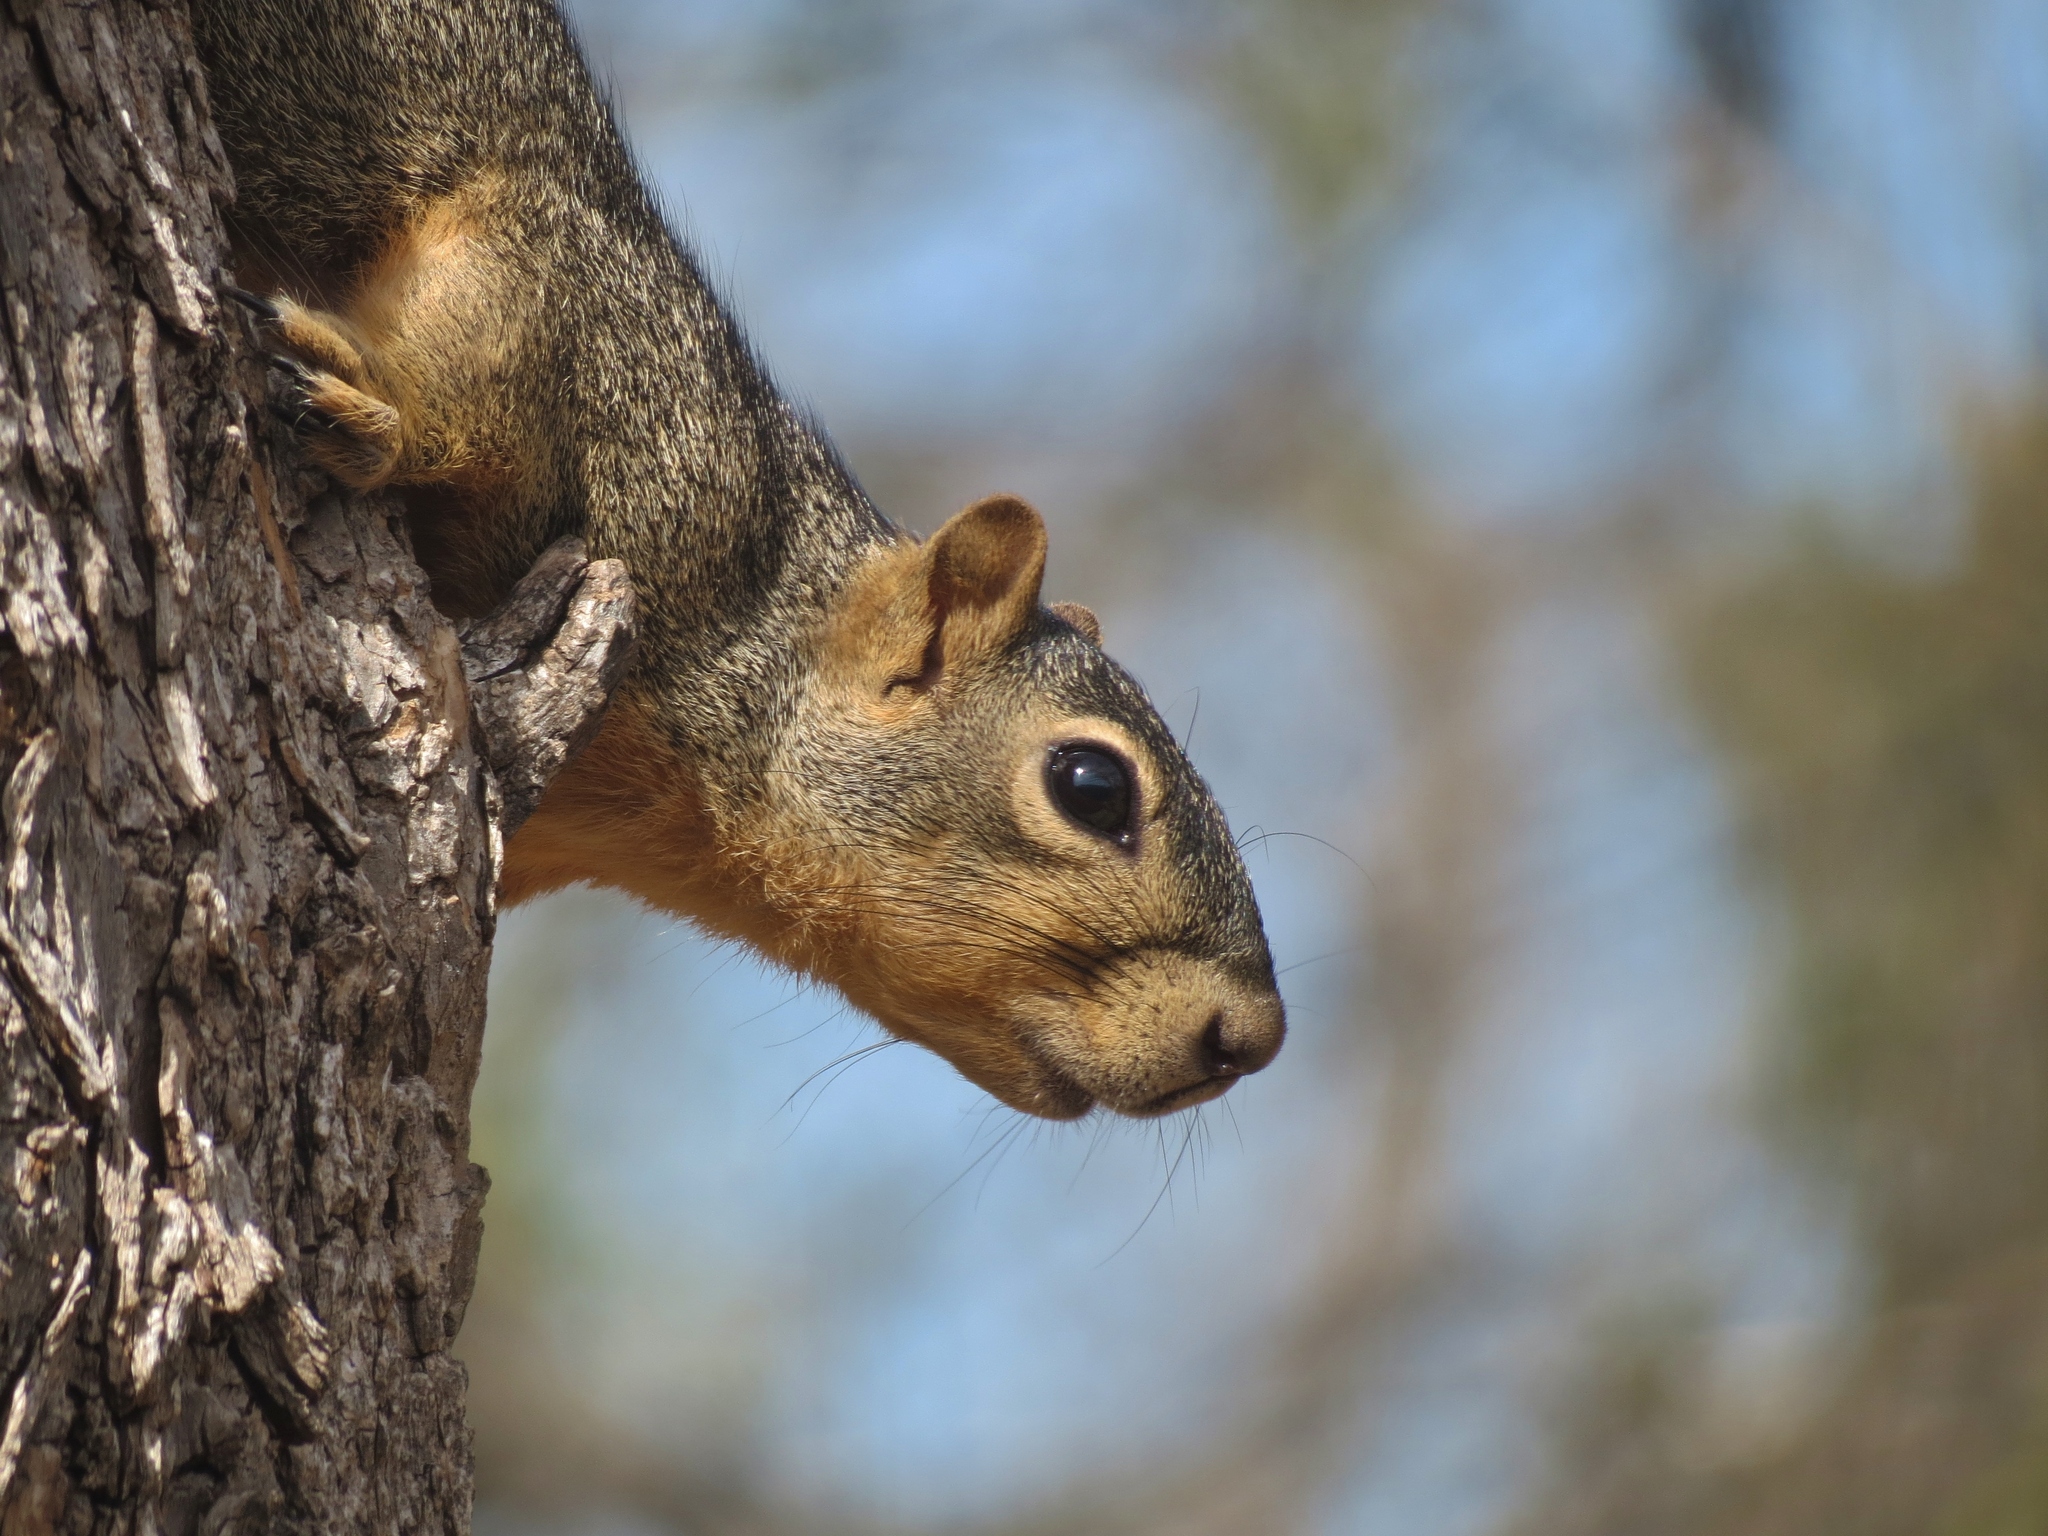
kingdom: Animalia
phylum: Chordata
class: Mammalia
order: Rodentia
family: Sciuridae
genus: Sciurus
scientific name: Sciurus niger
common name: Fox squirrel
